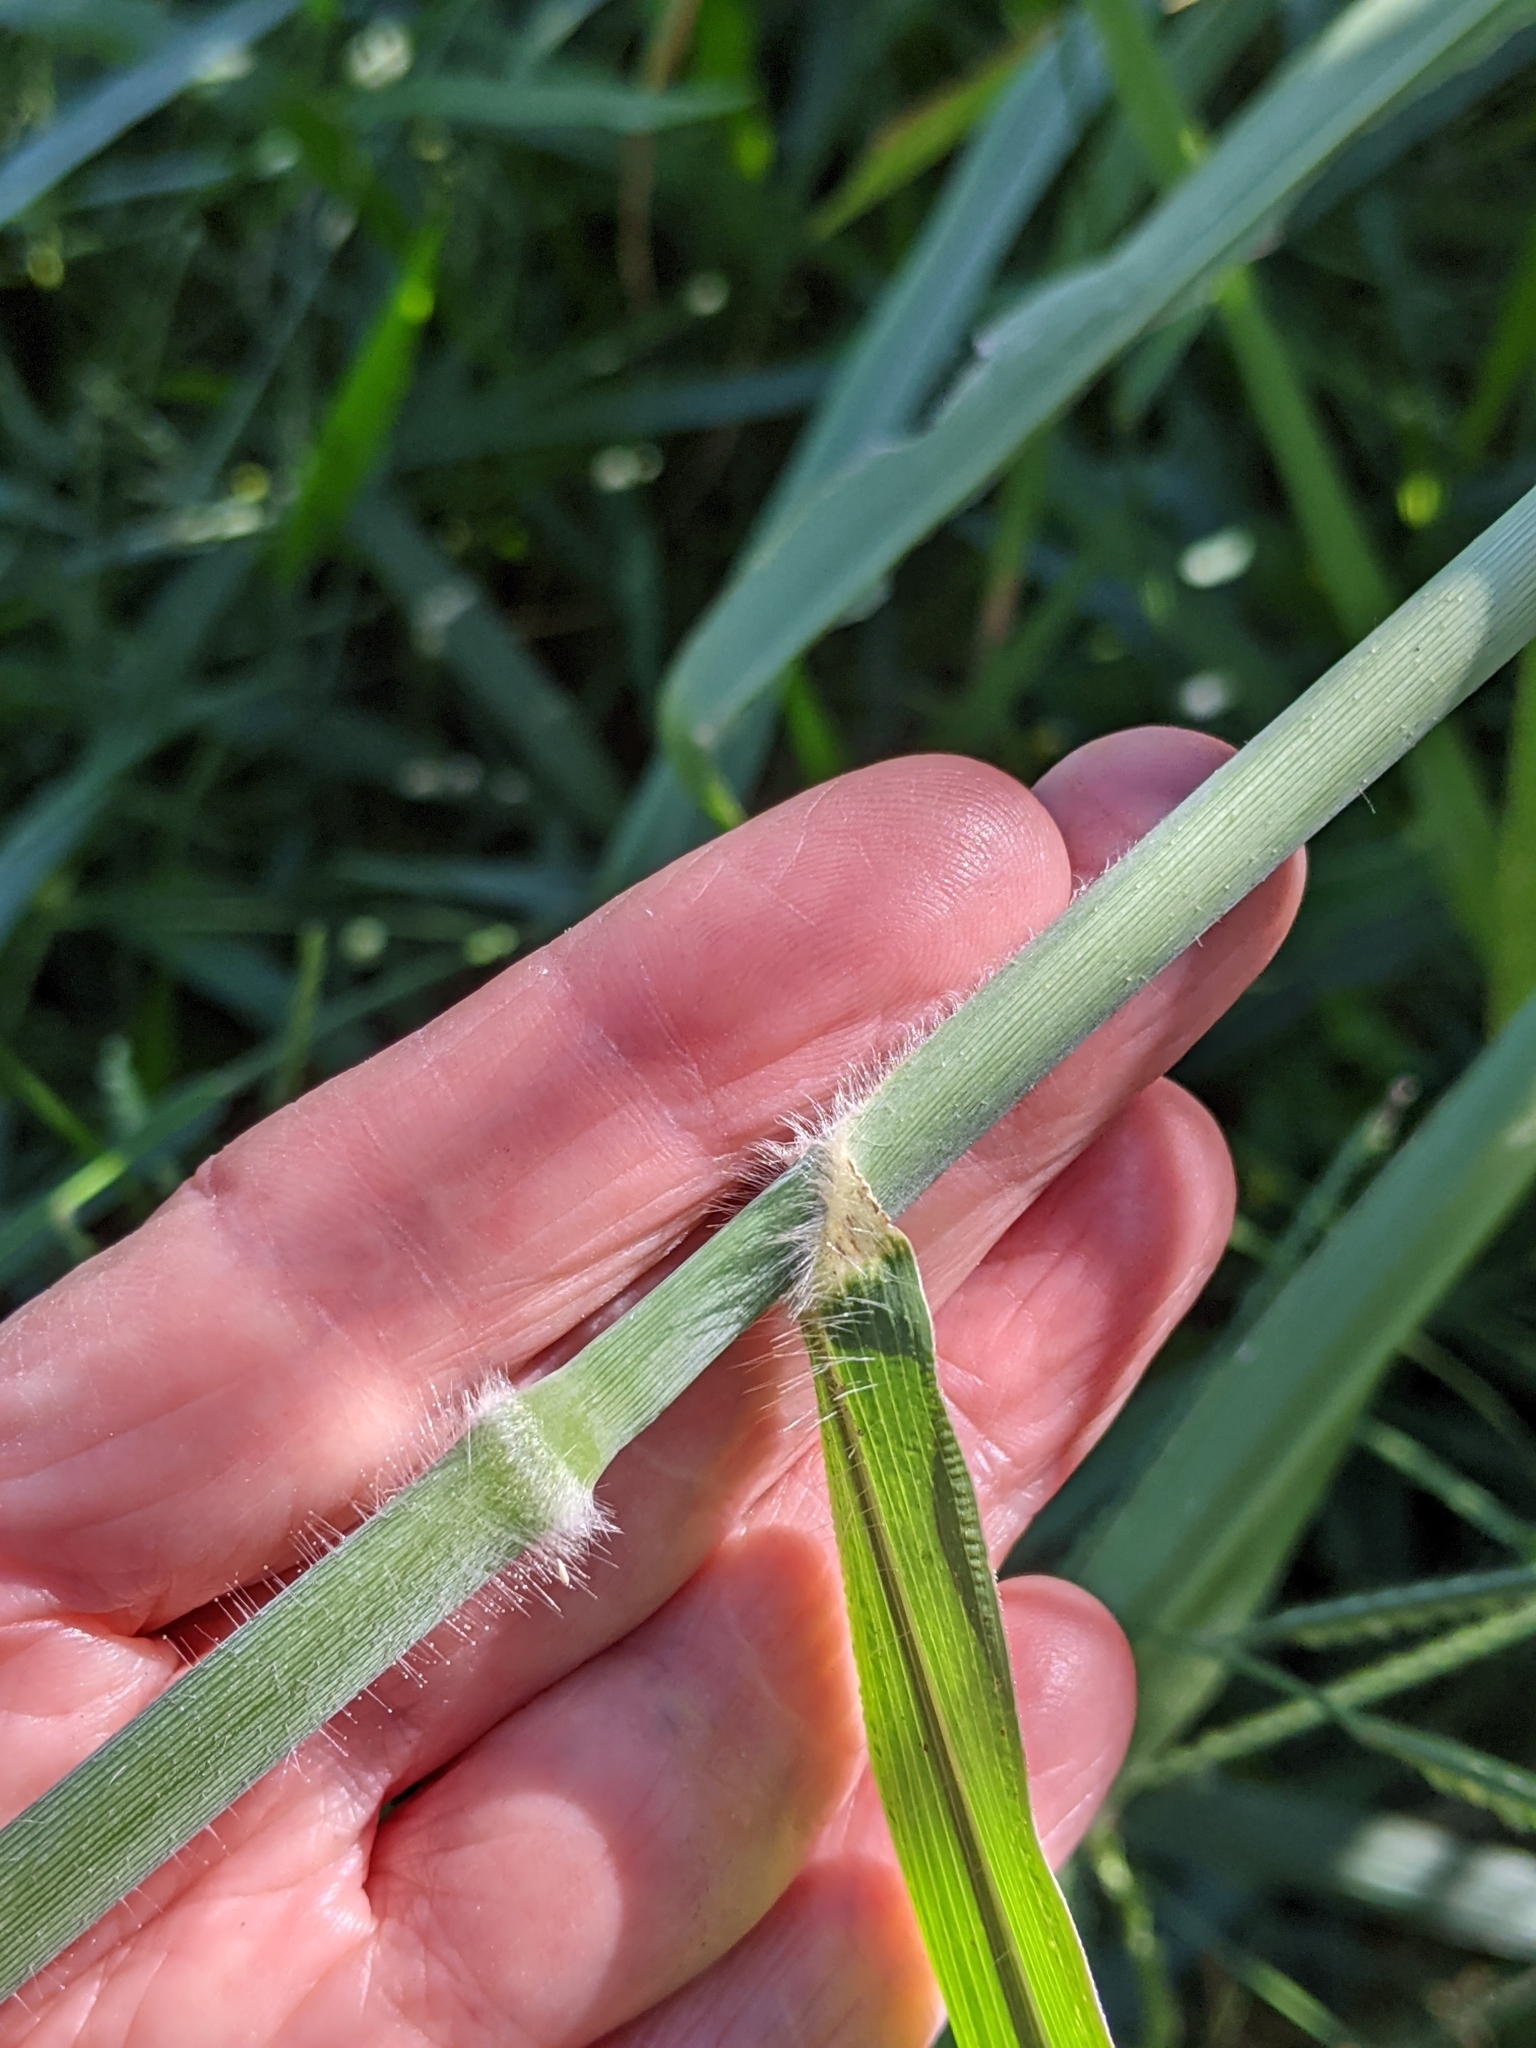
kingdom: Plantae
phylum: Tracheophyta
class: Liliopsida
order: Poales
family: Poaceae
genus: Megathyrsus
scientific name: Megathyrsus maximus
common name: Guineagrass
